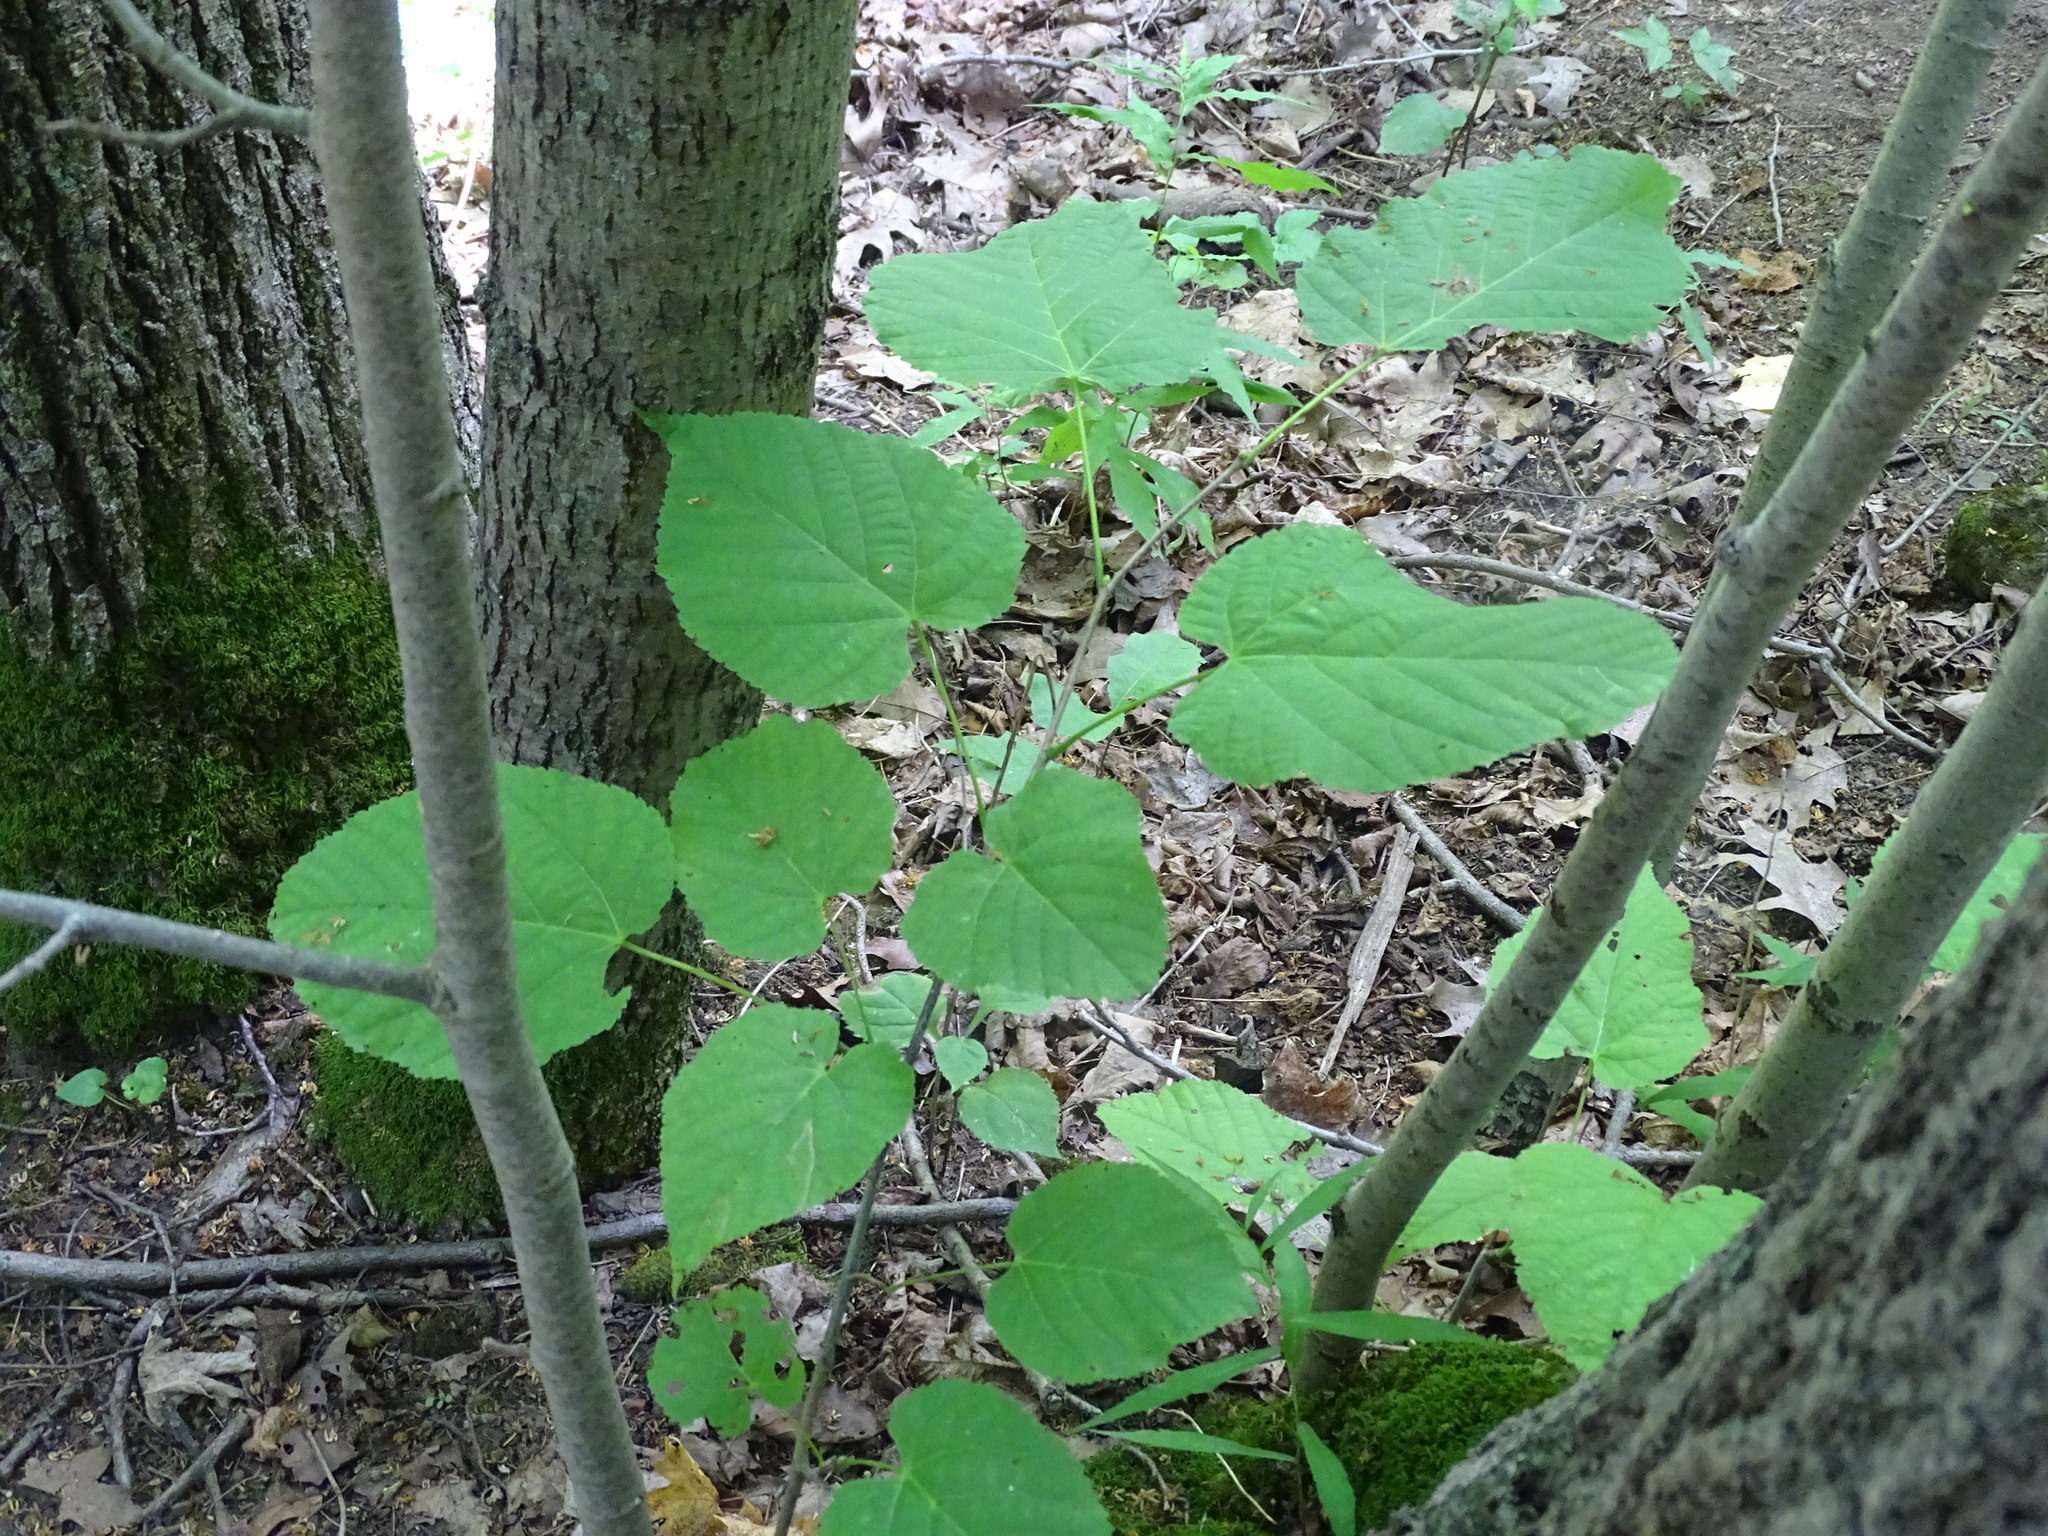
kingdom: Plantae
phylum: Tracheophyta
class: Magnoliopsida
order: Malvales
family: Malvaceae
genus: Tilia
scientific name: Tilia americana
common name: Basswood
